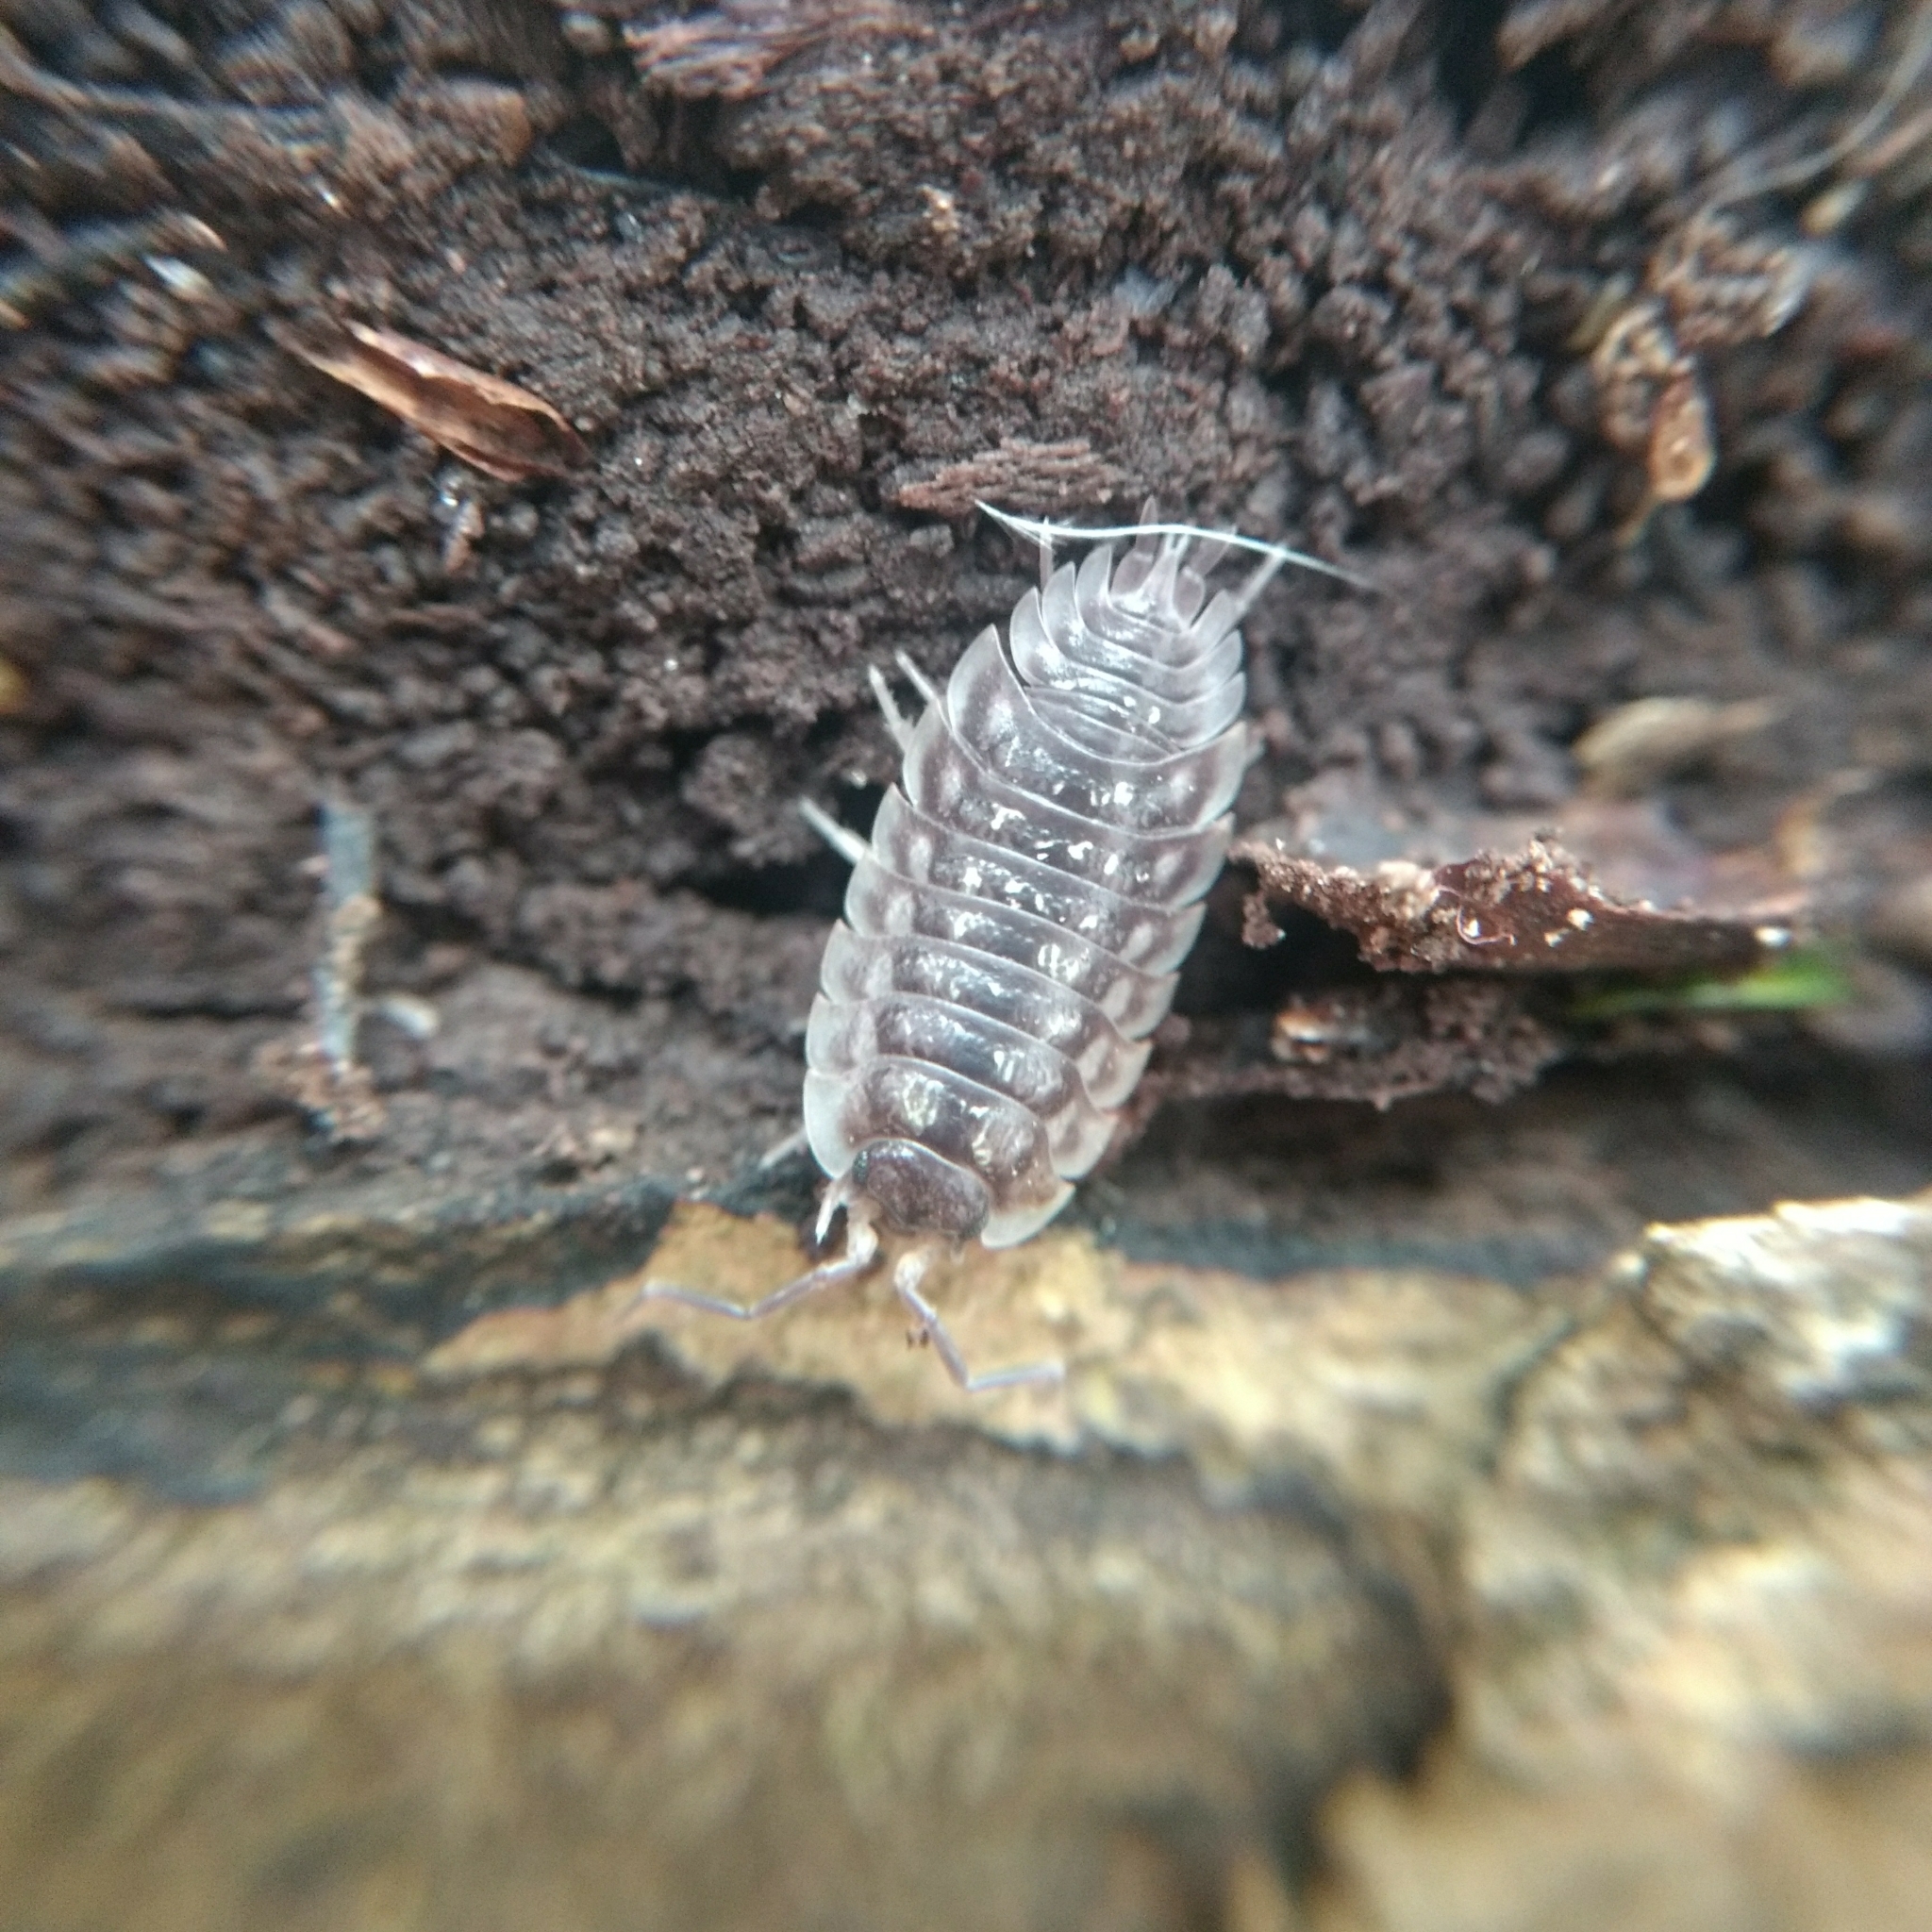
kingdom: Animalia
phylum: Arthropoda
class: Malacostraca
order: Isopoda
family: Oniscidae
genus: Oniscus
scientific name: Oniscus asellus
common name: Common shiny woodlouse
